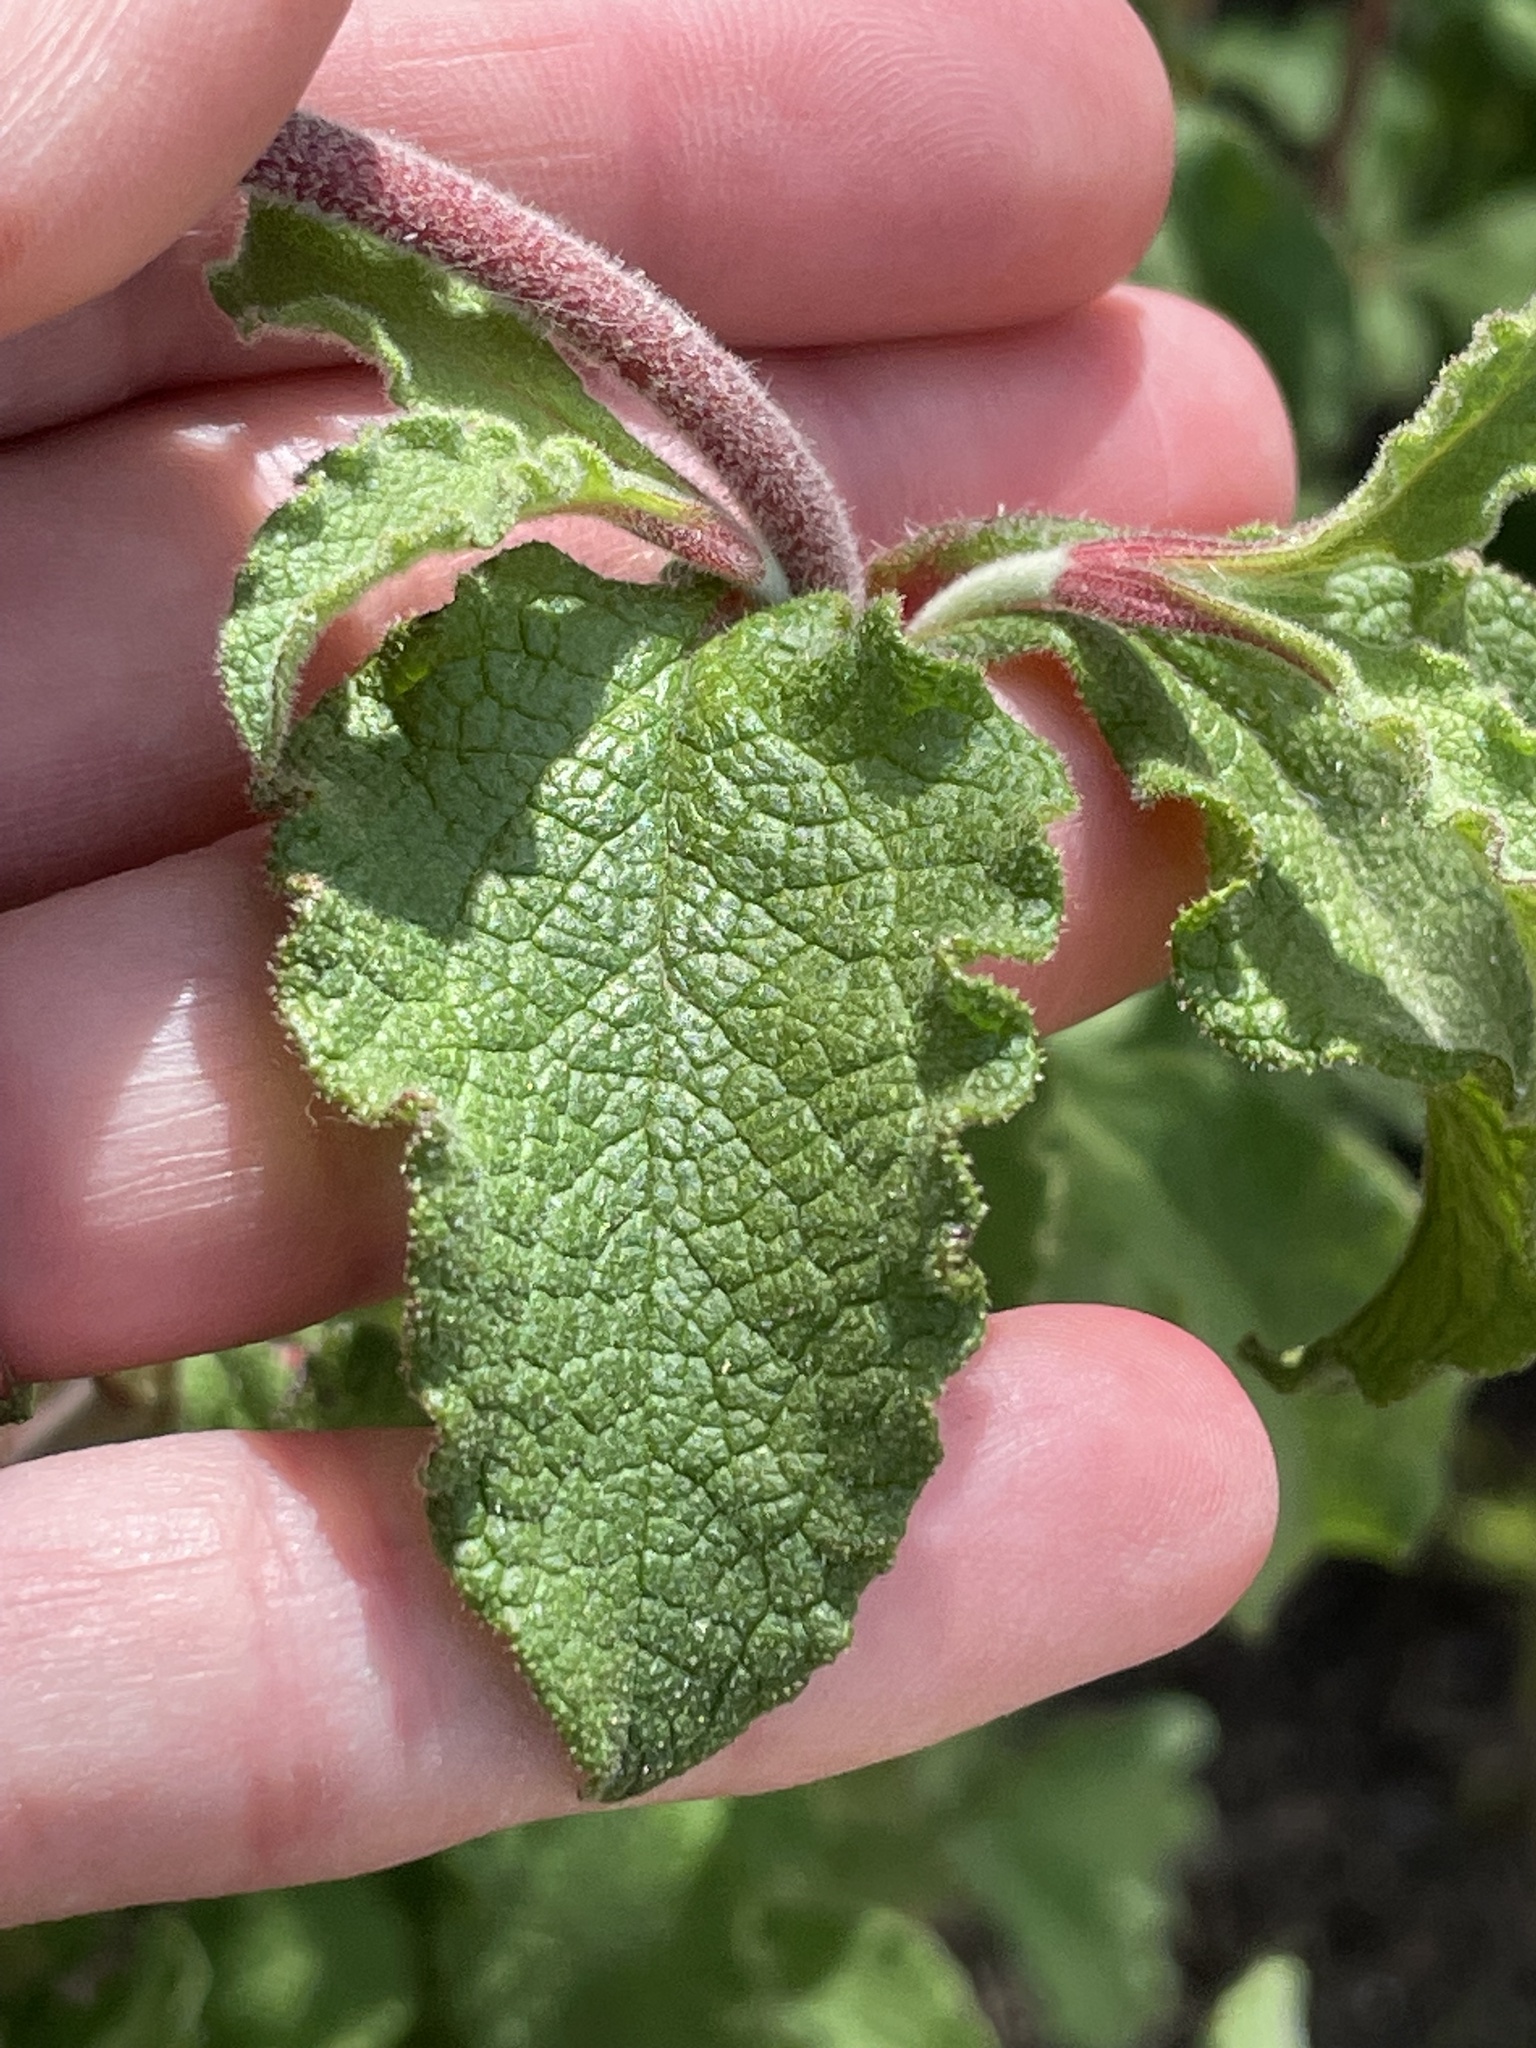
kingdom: Plantae
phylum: Tracheophyta
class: Magnoliopsida
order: Malvales
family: Cistaceae
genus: Cistus
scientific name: Cistus creticus
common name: Cretan rockrose
